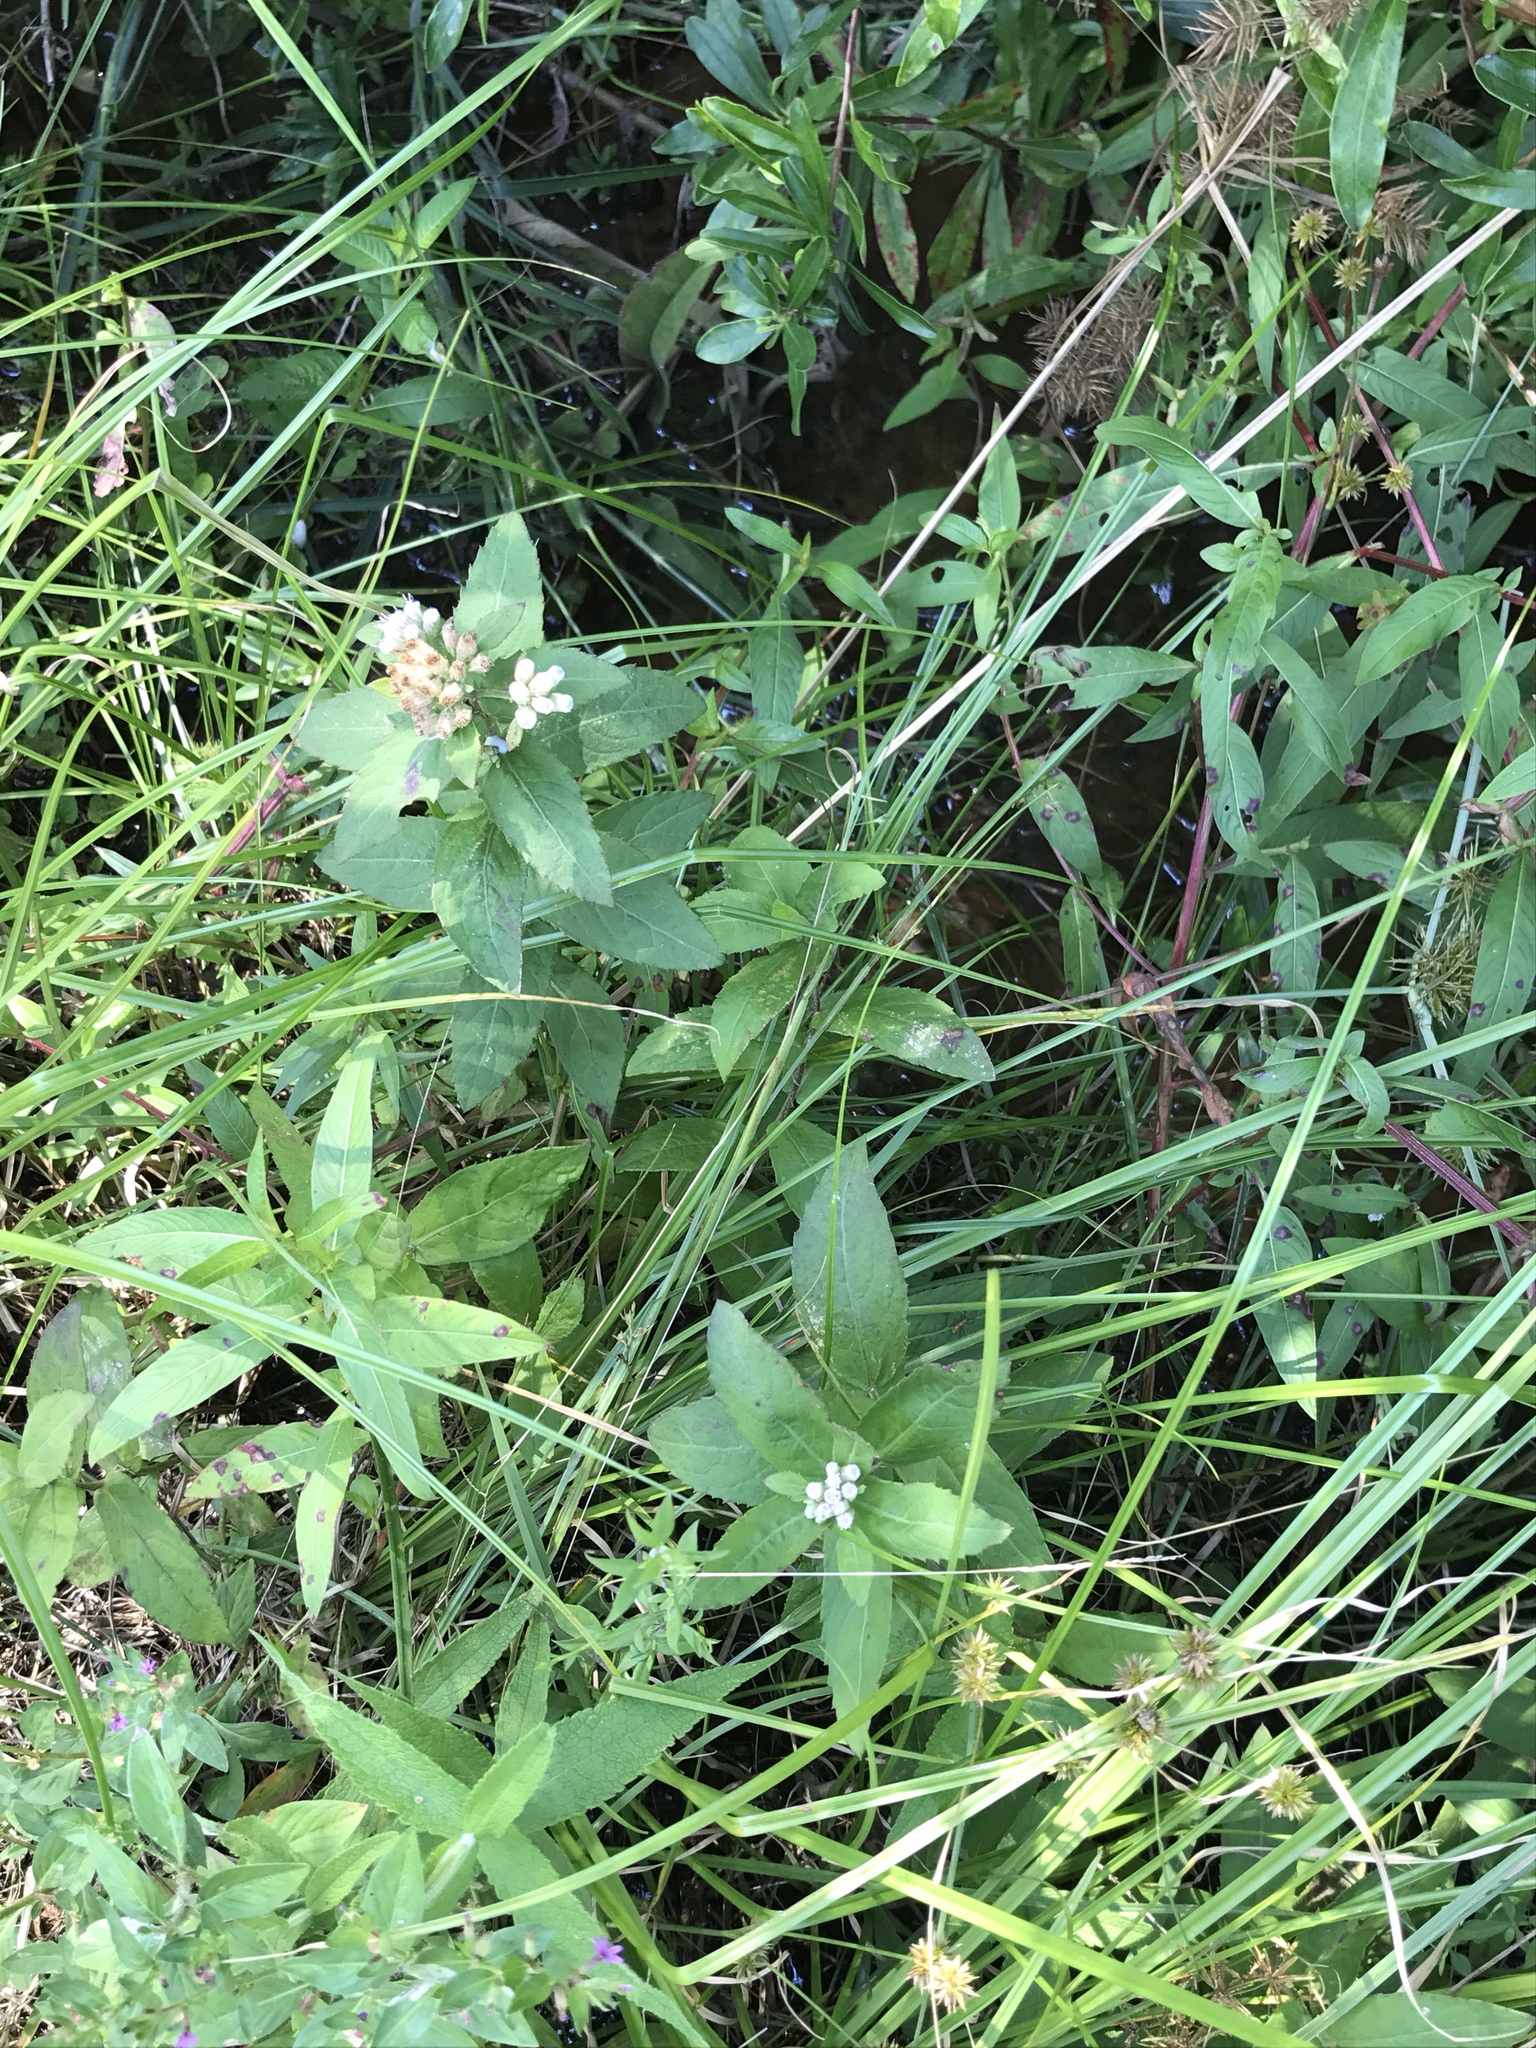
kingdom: Plantae
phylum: Tracheophyta
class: Magnoliopsida
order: Asterales
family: Asteraceae
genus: Pluchea
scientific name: Pluchea foetida
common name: Stinking camphorweed
